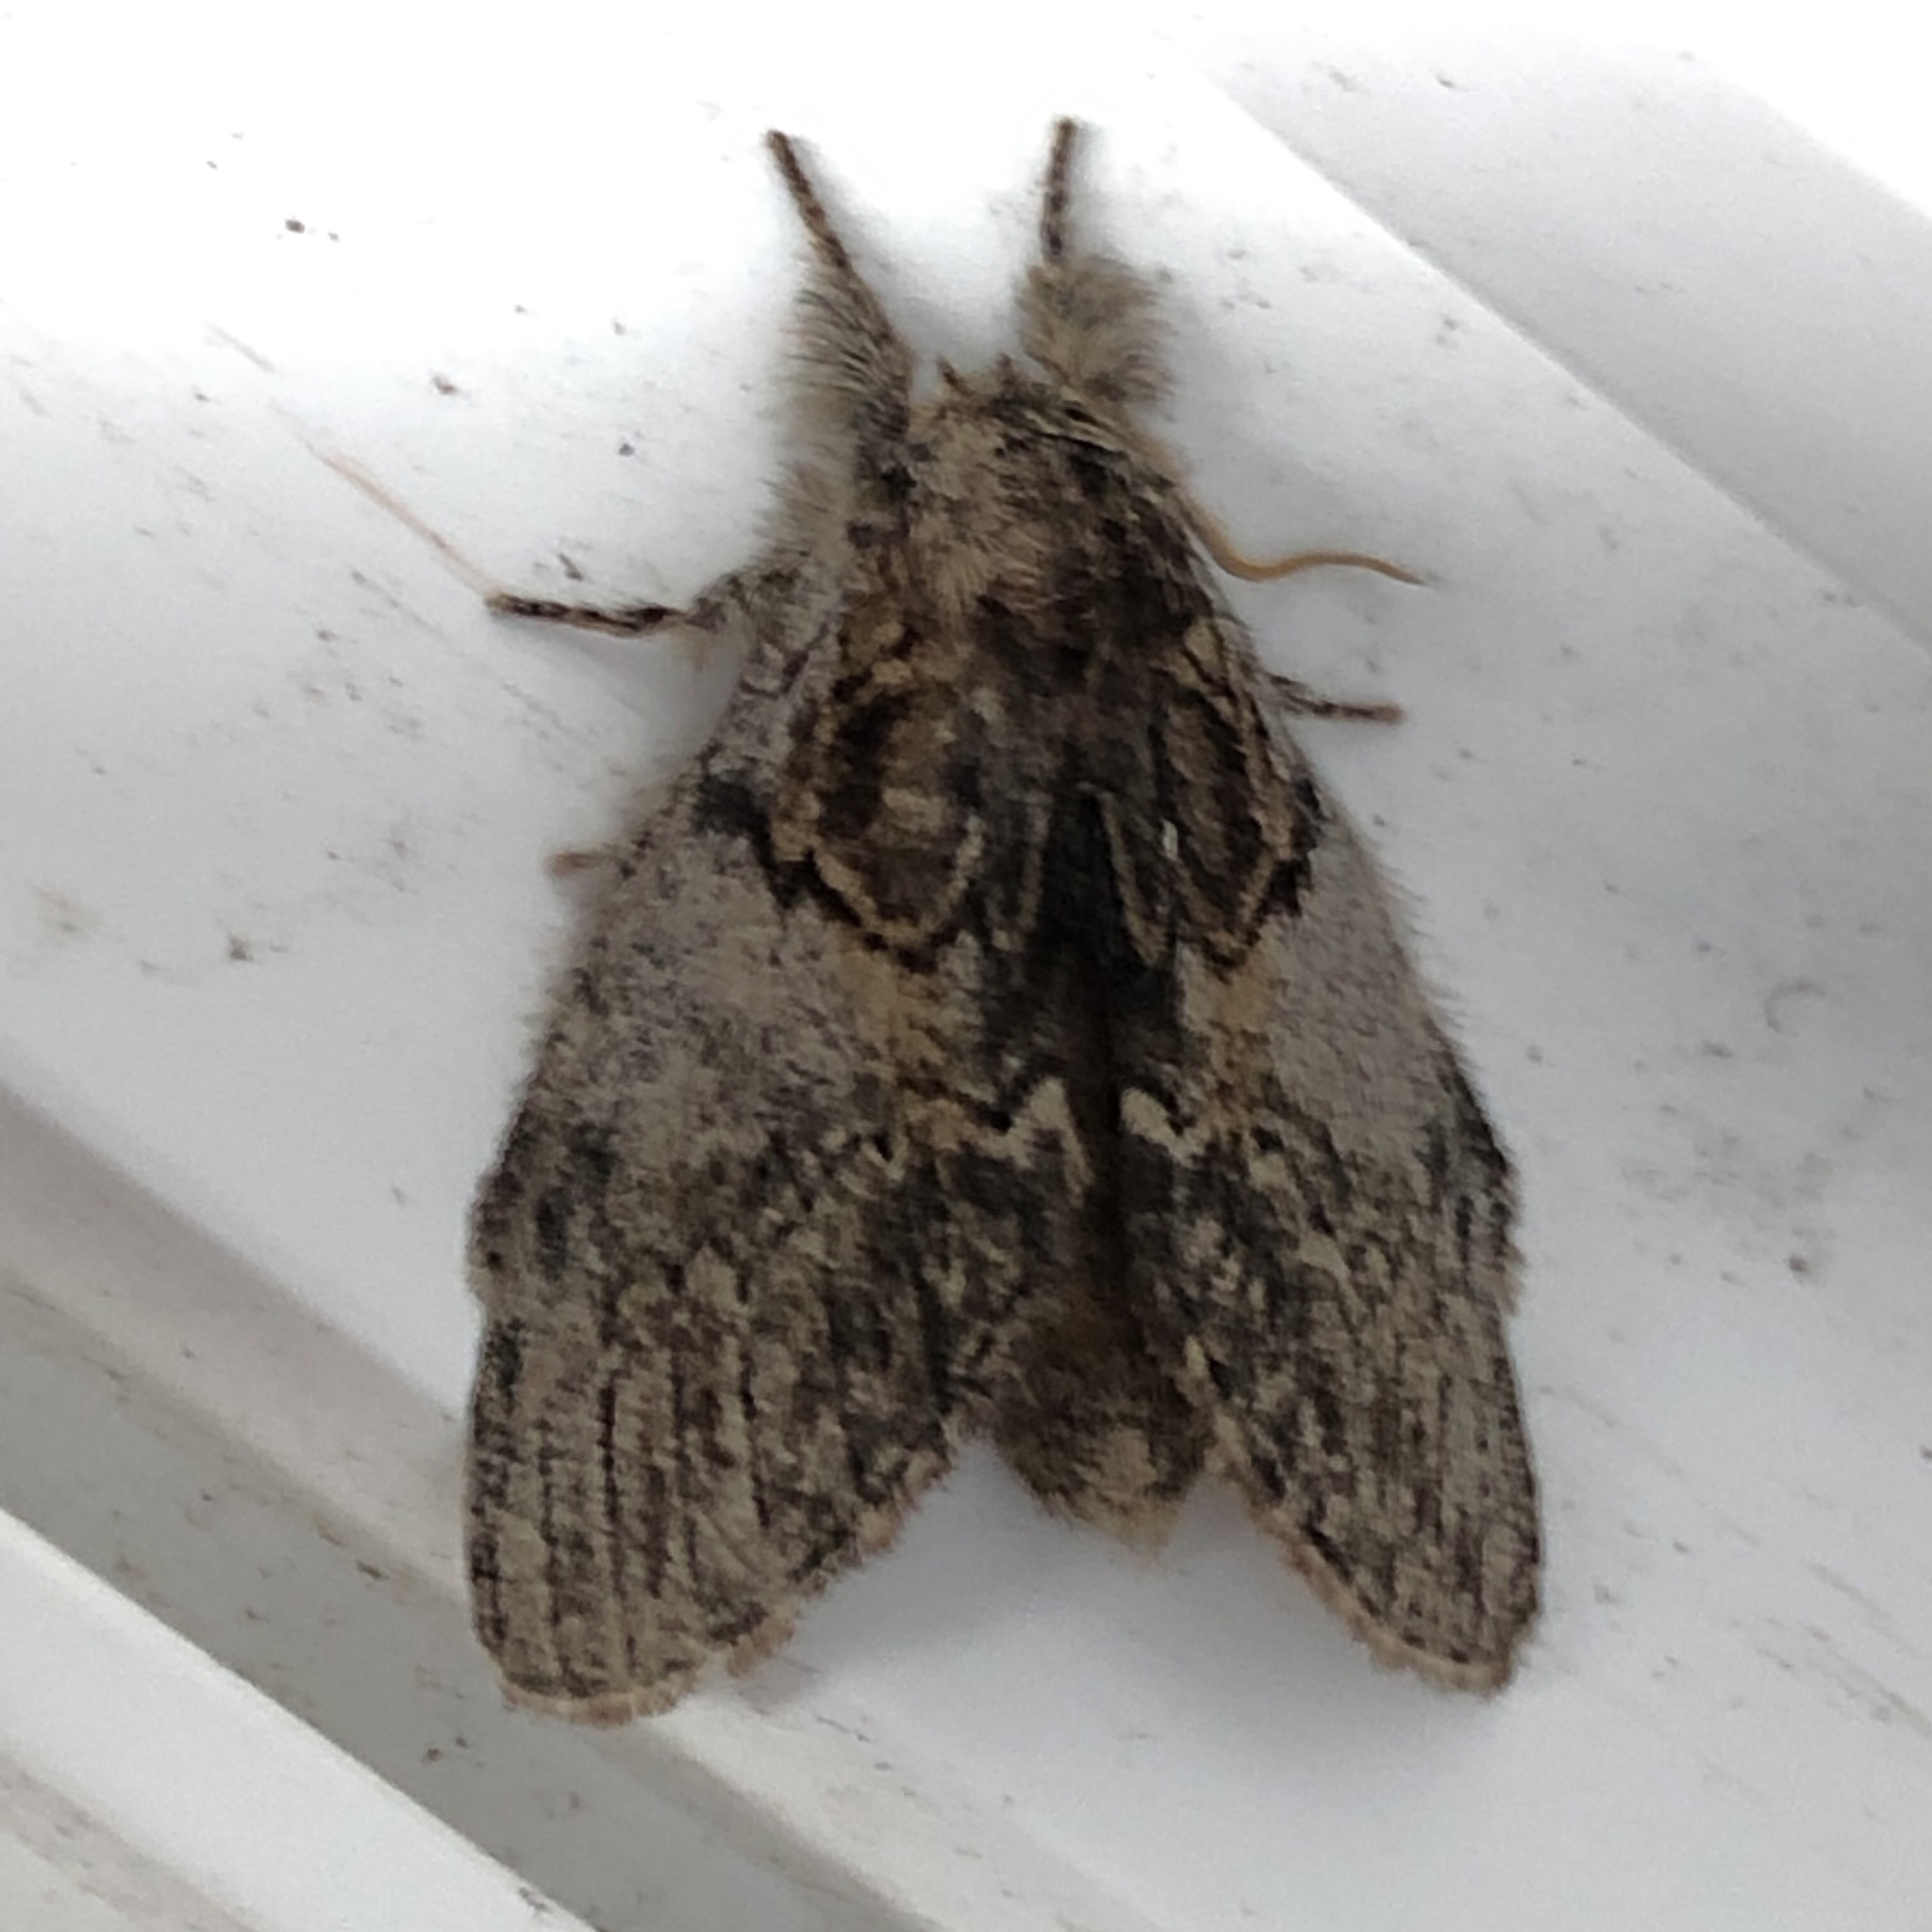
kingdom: Animalia
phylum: Arthropoda
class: Insecta
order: Lepidoptera
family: Notodontidae
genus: Peridea
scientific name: Peridea basitriens
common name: Oval-based prominent
